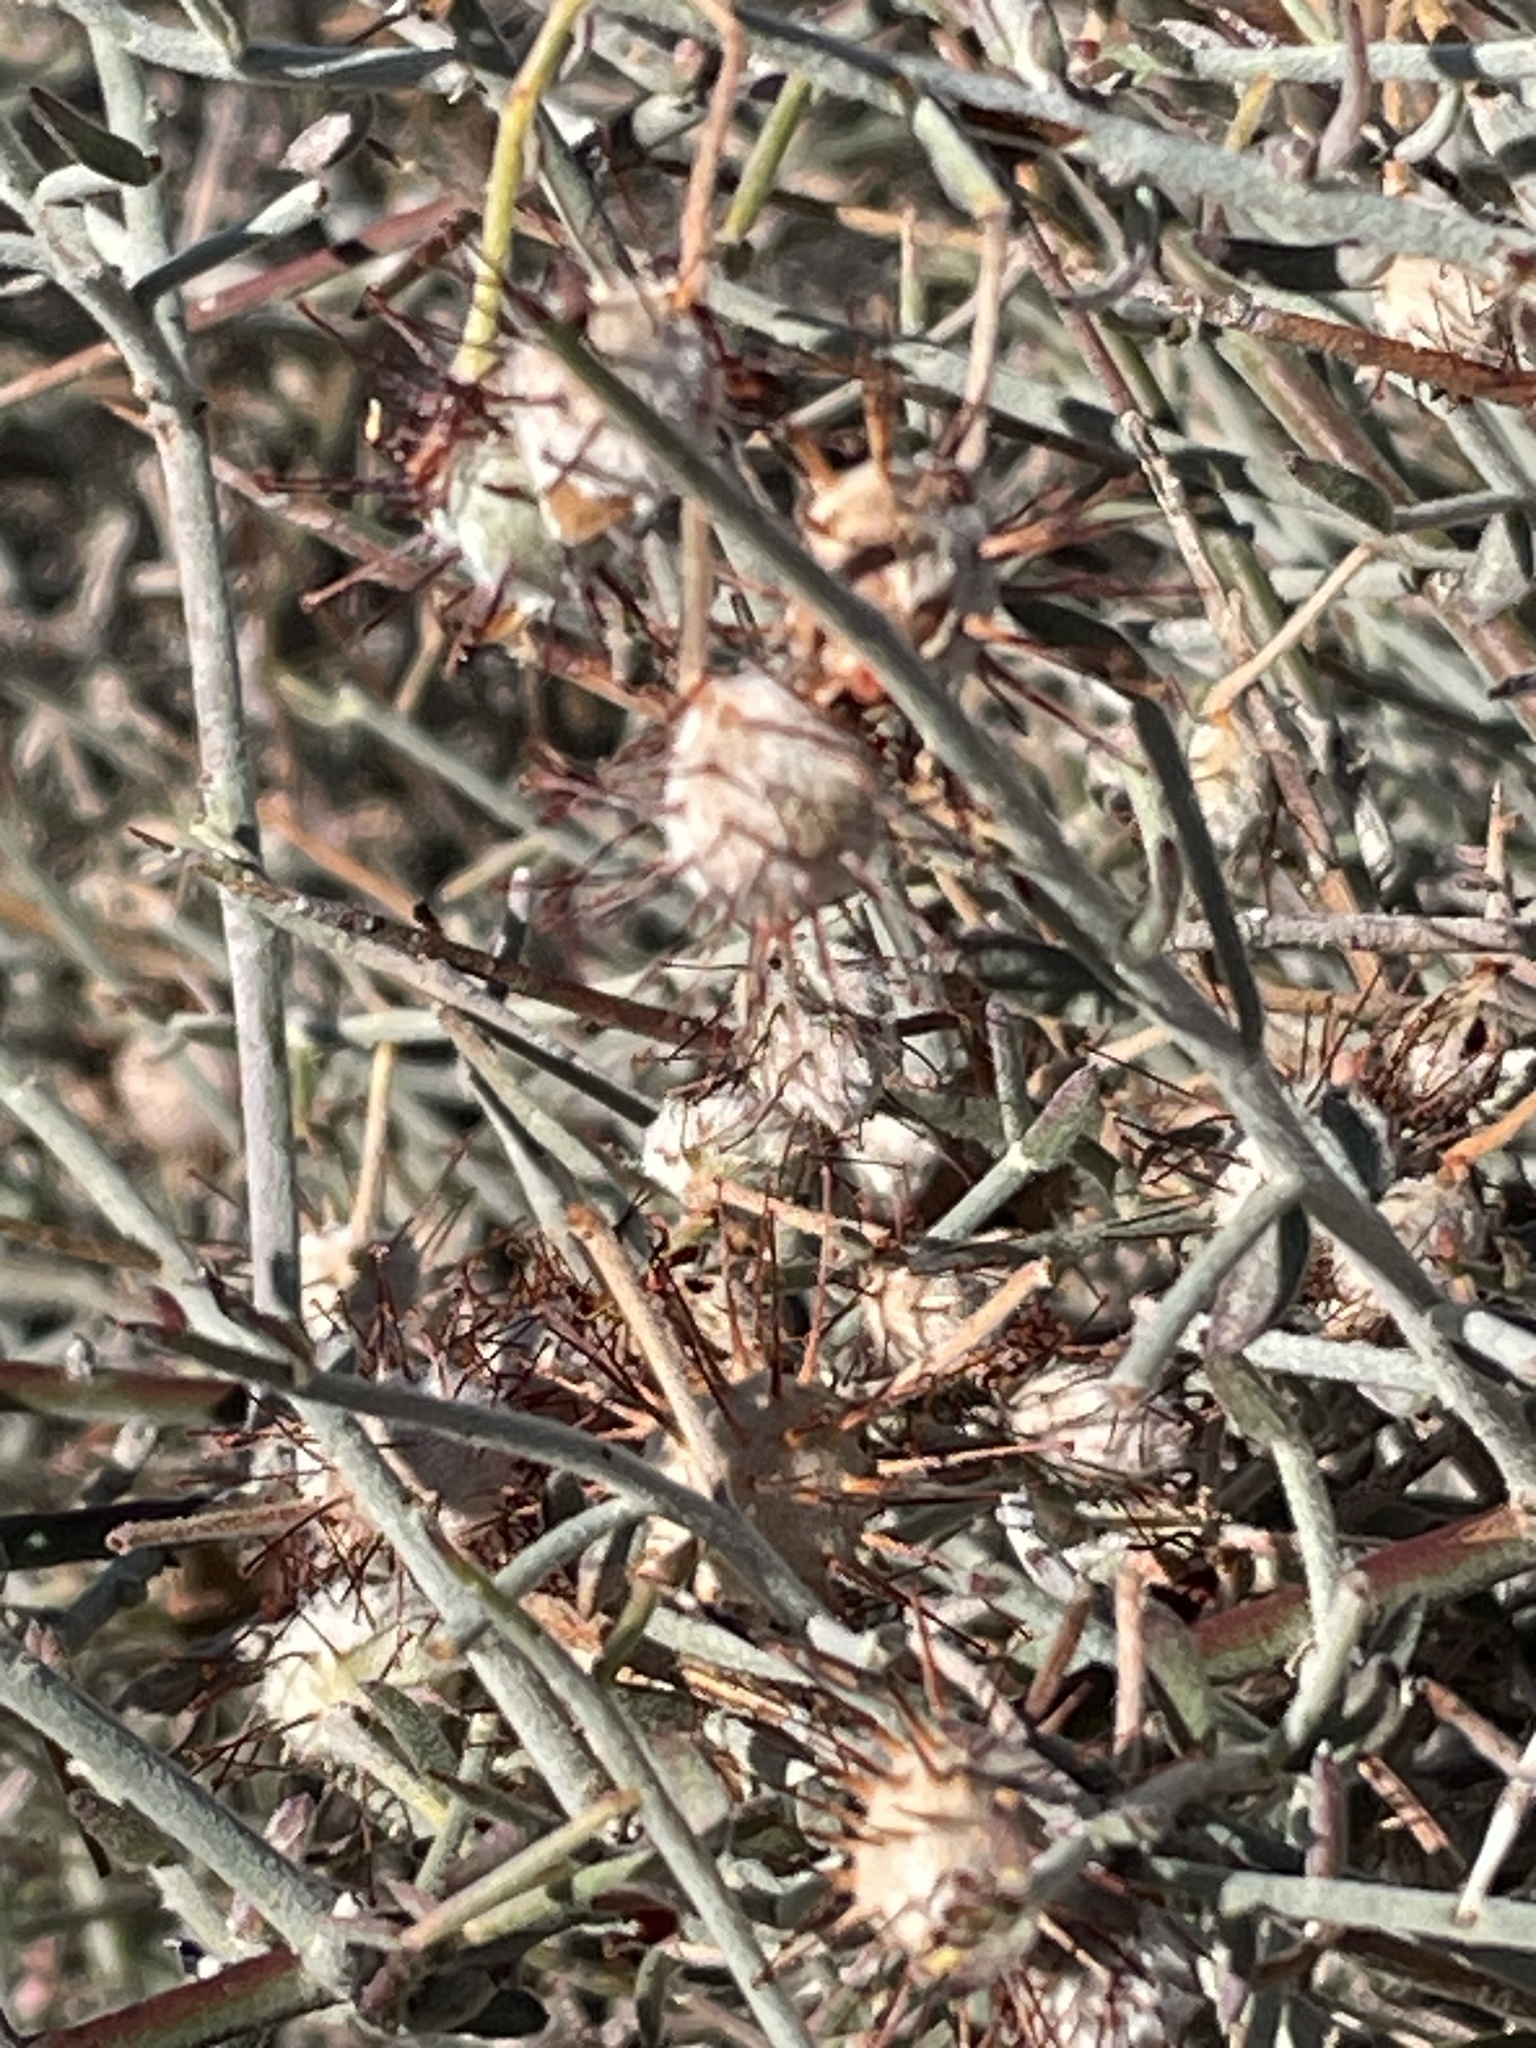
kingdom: Plantae
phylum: Tracheophyta
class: Magnoliopsida
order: Zygophyllales
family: Krameriaceae
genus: Krameria
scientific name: Krameria bicolor
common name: White ratany
